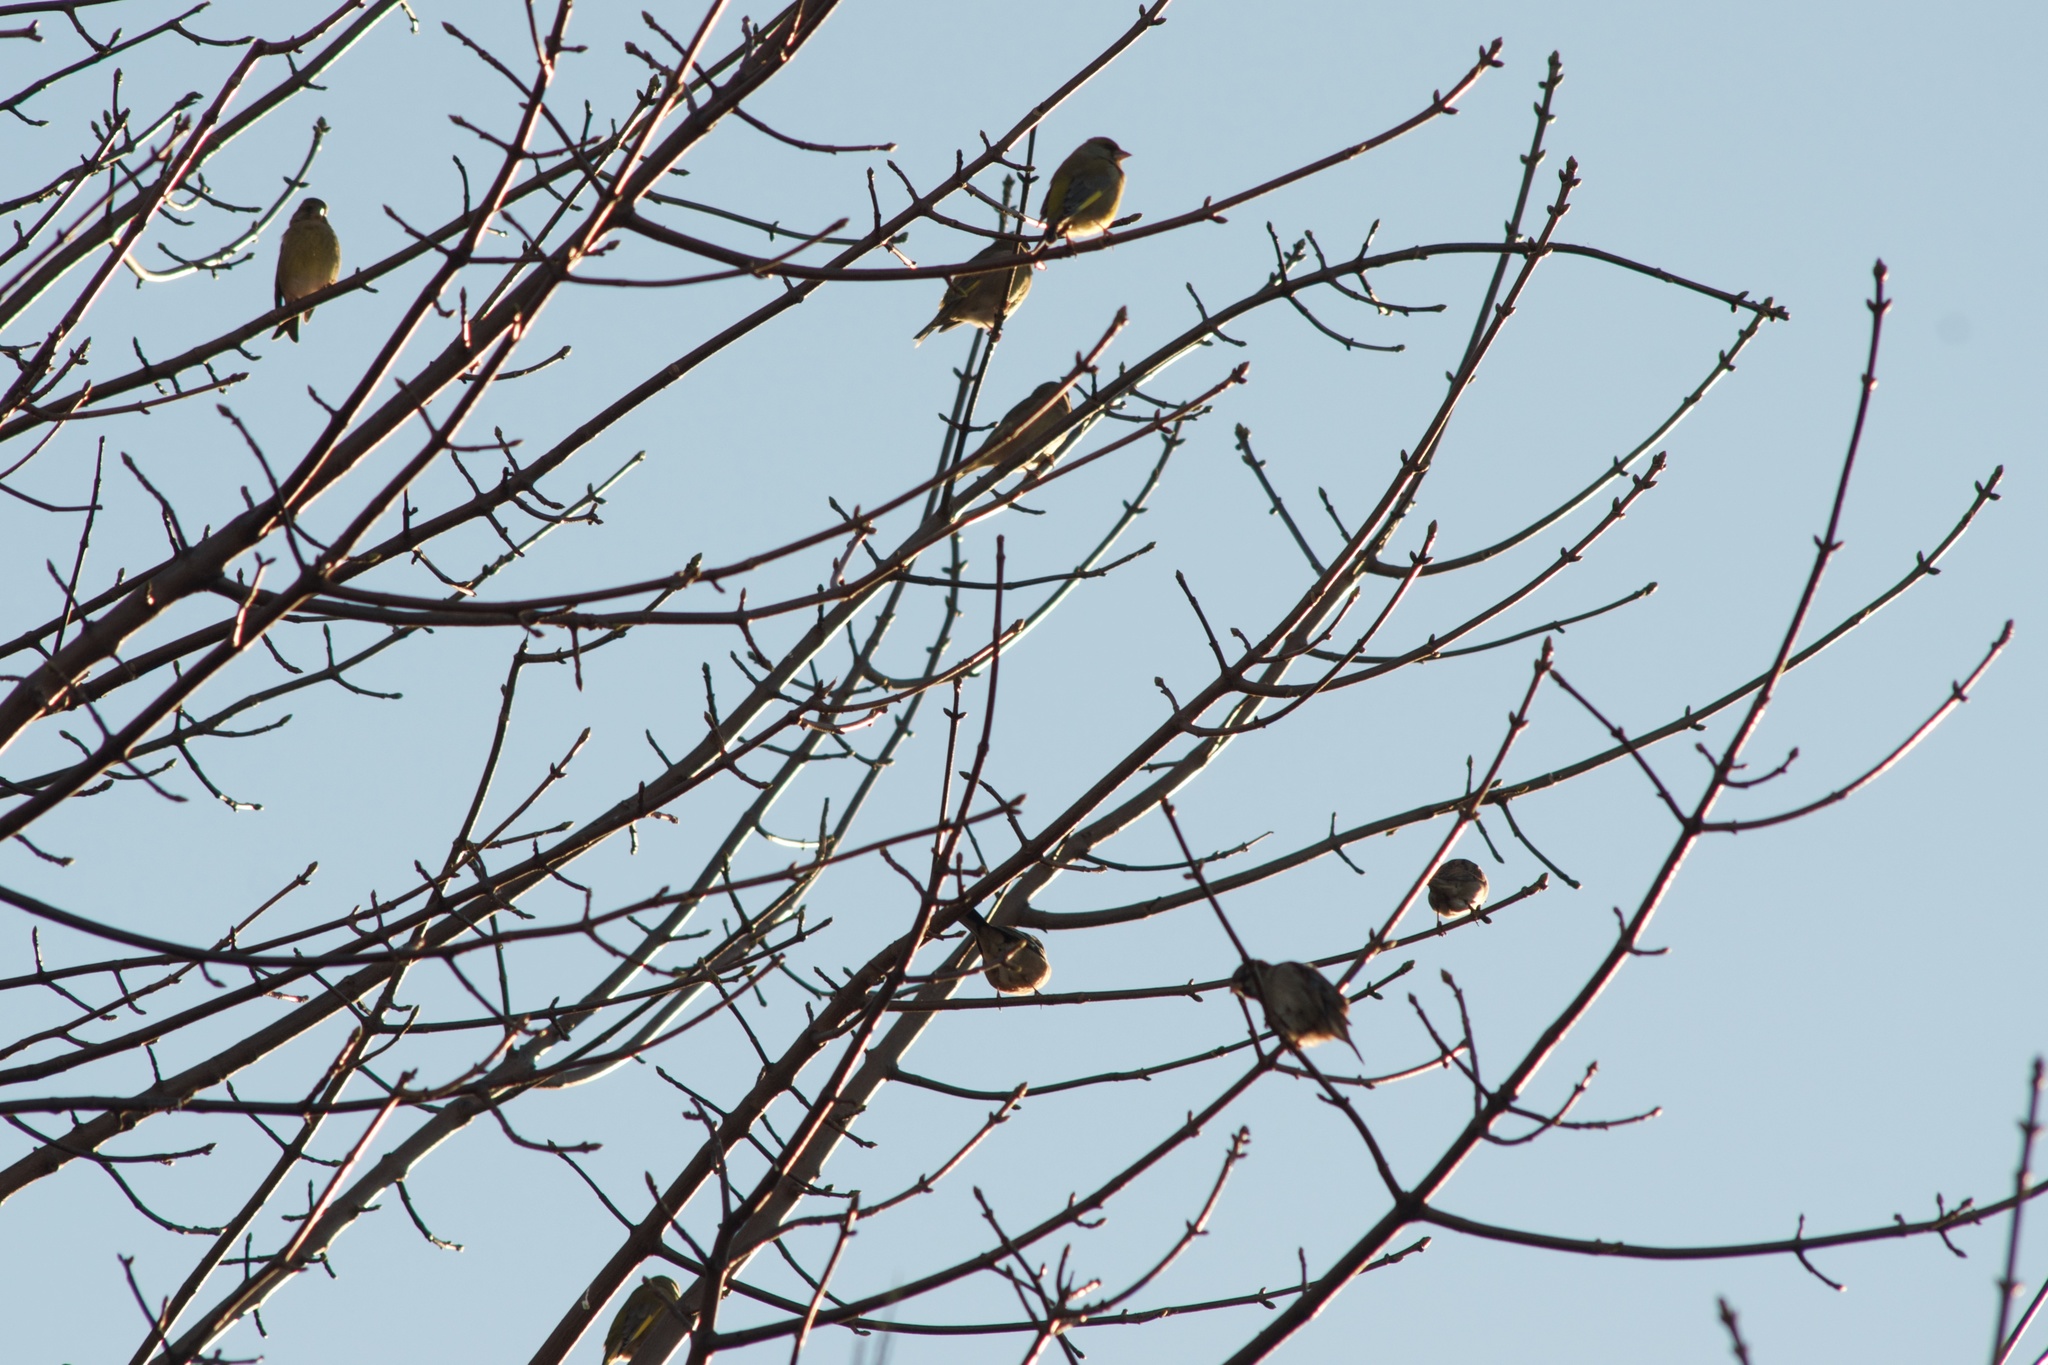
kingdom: Plantae
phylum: Tracheophyta
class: Liliopsida
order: Poales
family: Poaceae
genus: Chloris
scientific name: Chloris chloris
